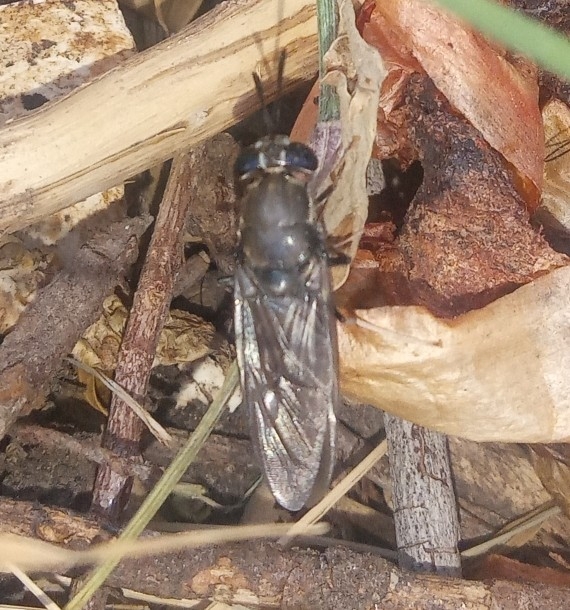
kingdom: Animalia
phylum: Arthropoda
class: Insecta
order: Diptera
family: Stratiomyidae
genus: Hermetia
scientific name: Hermetia illucens
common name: Black soldier fly
